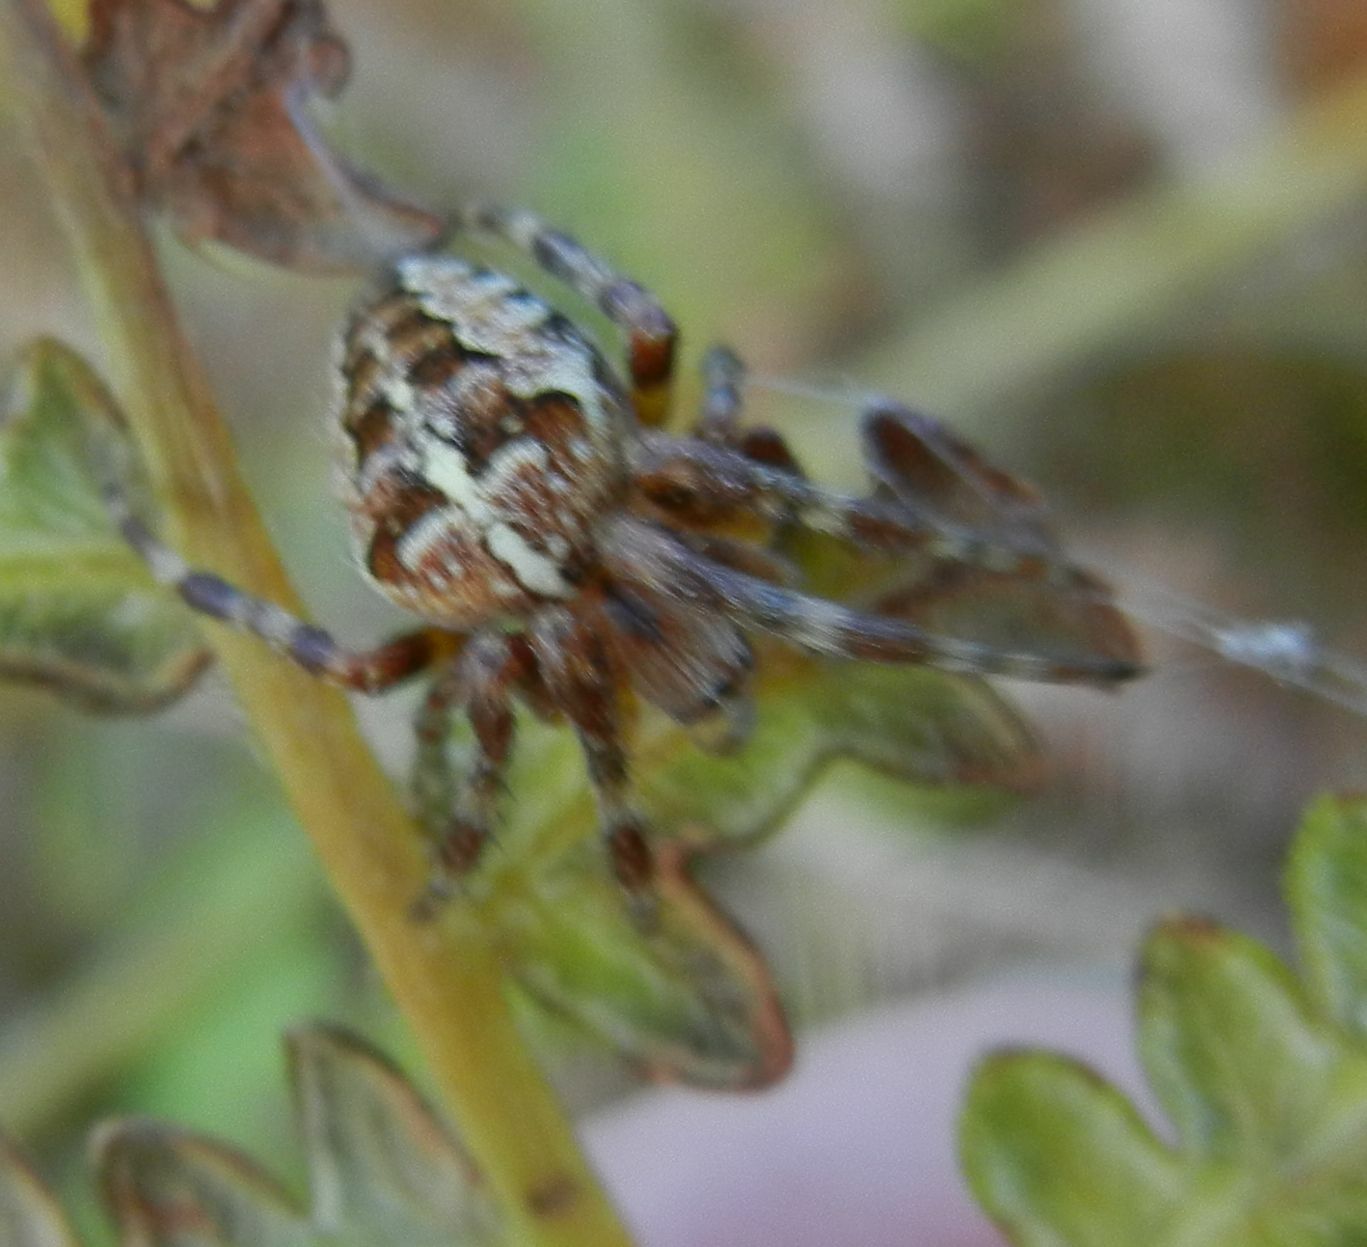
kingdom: Animalia
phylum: Arthropoda
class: Arachnida
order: Araneae
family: Araneidae
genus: Araneus
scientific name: Araneus diadematus
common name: Cross orbweaver
